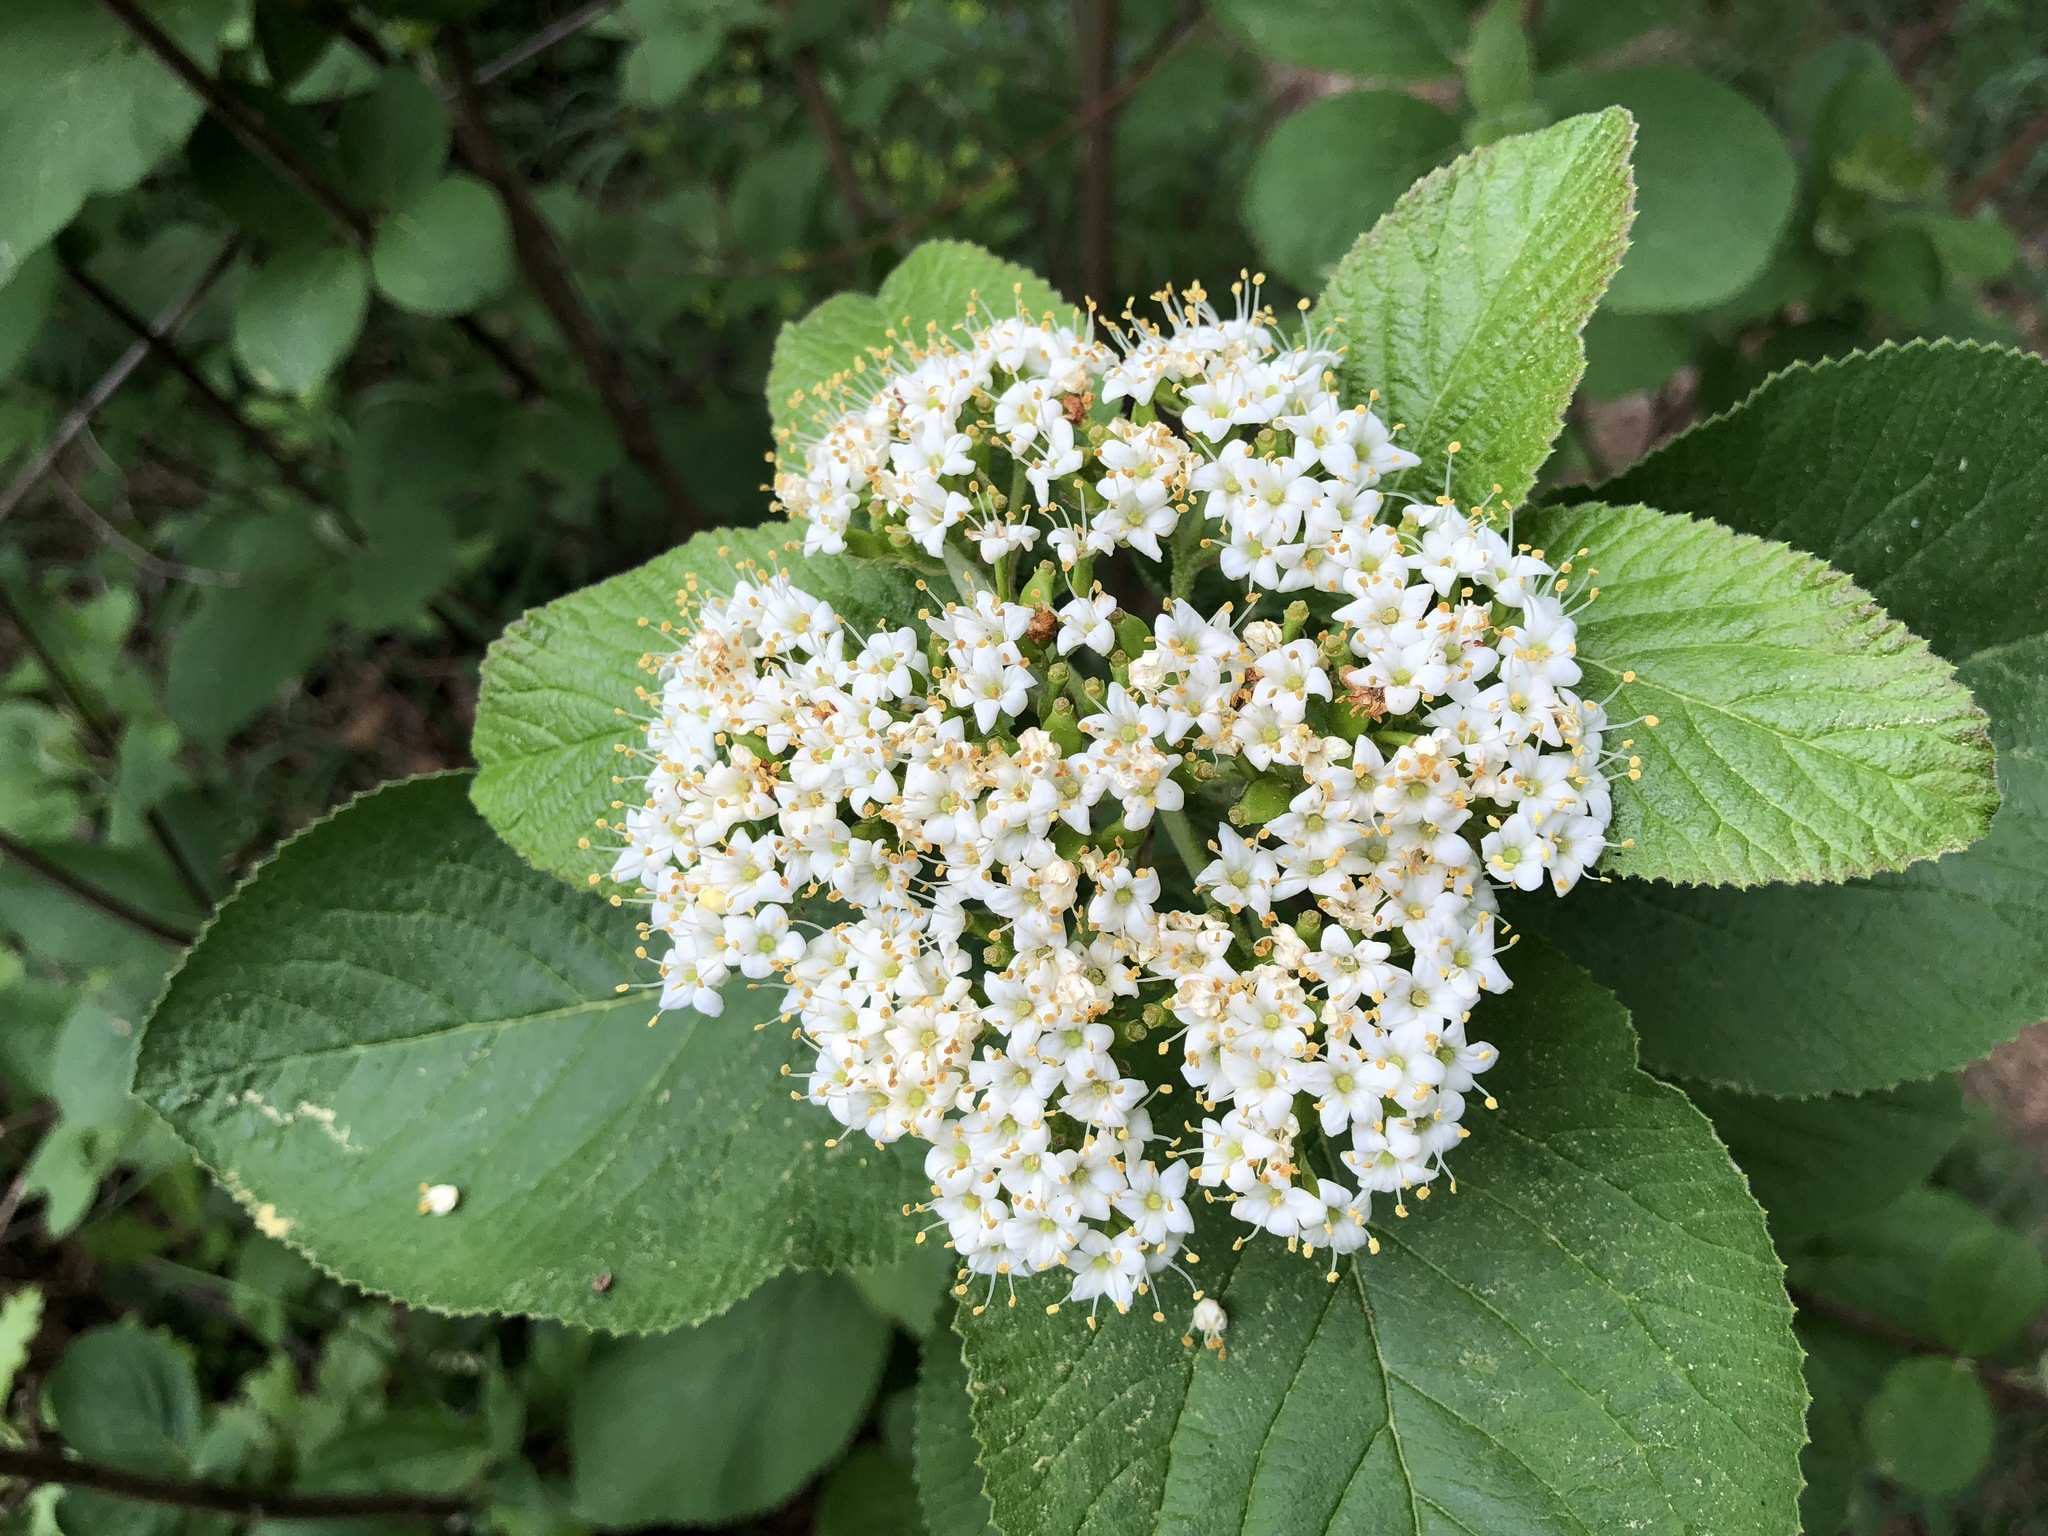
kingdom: Plantae
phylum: Tracheophyta
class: Magnoliopsida
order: Dipsacales
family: Viburnaceae
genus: Viburnum
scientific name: Viburnum lantana
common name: Wayfaring tree
